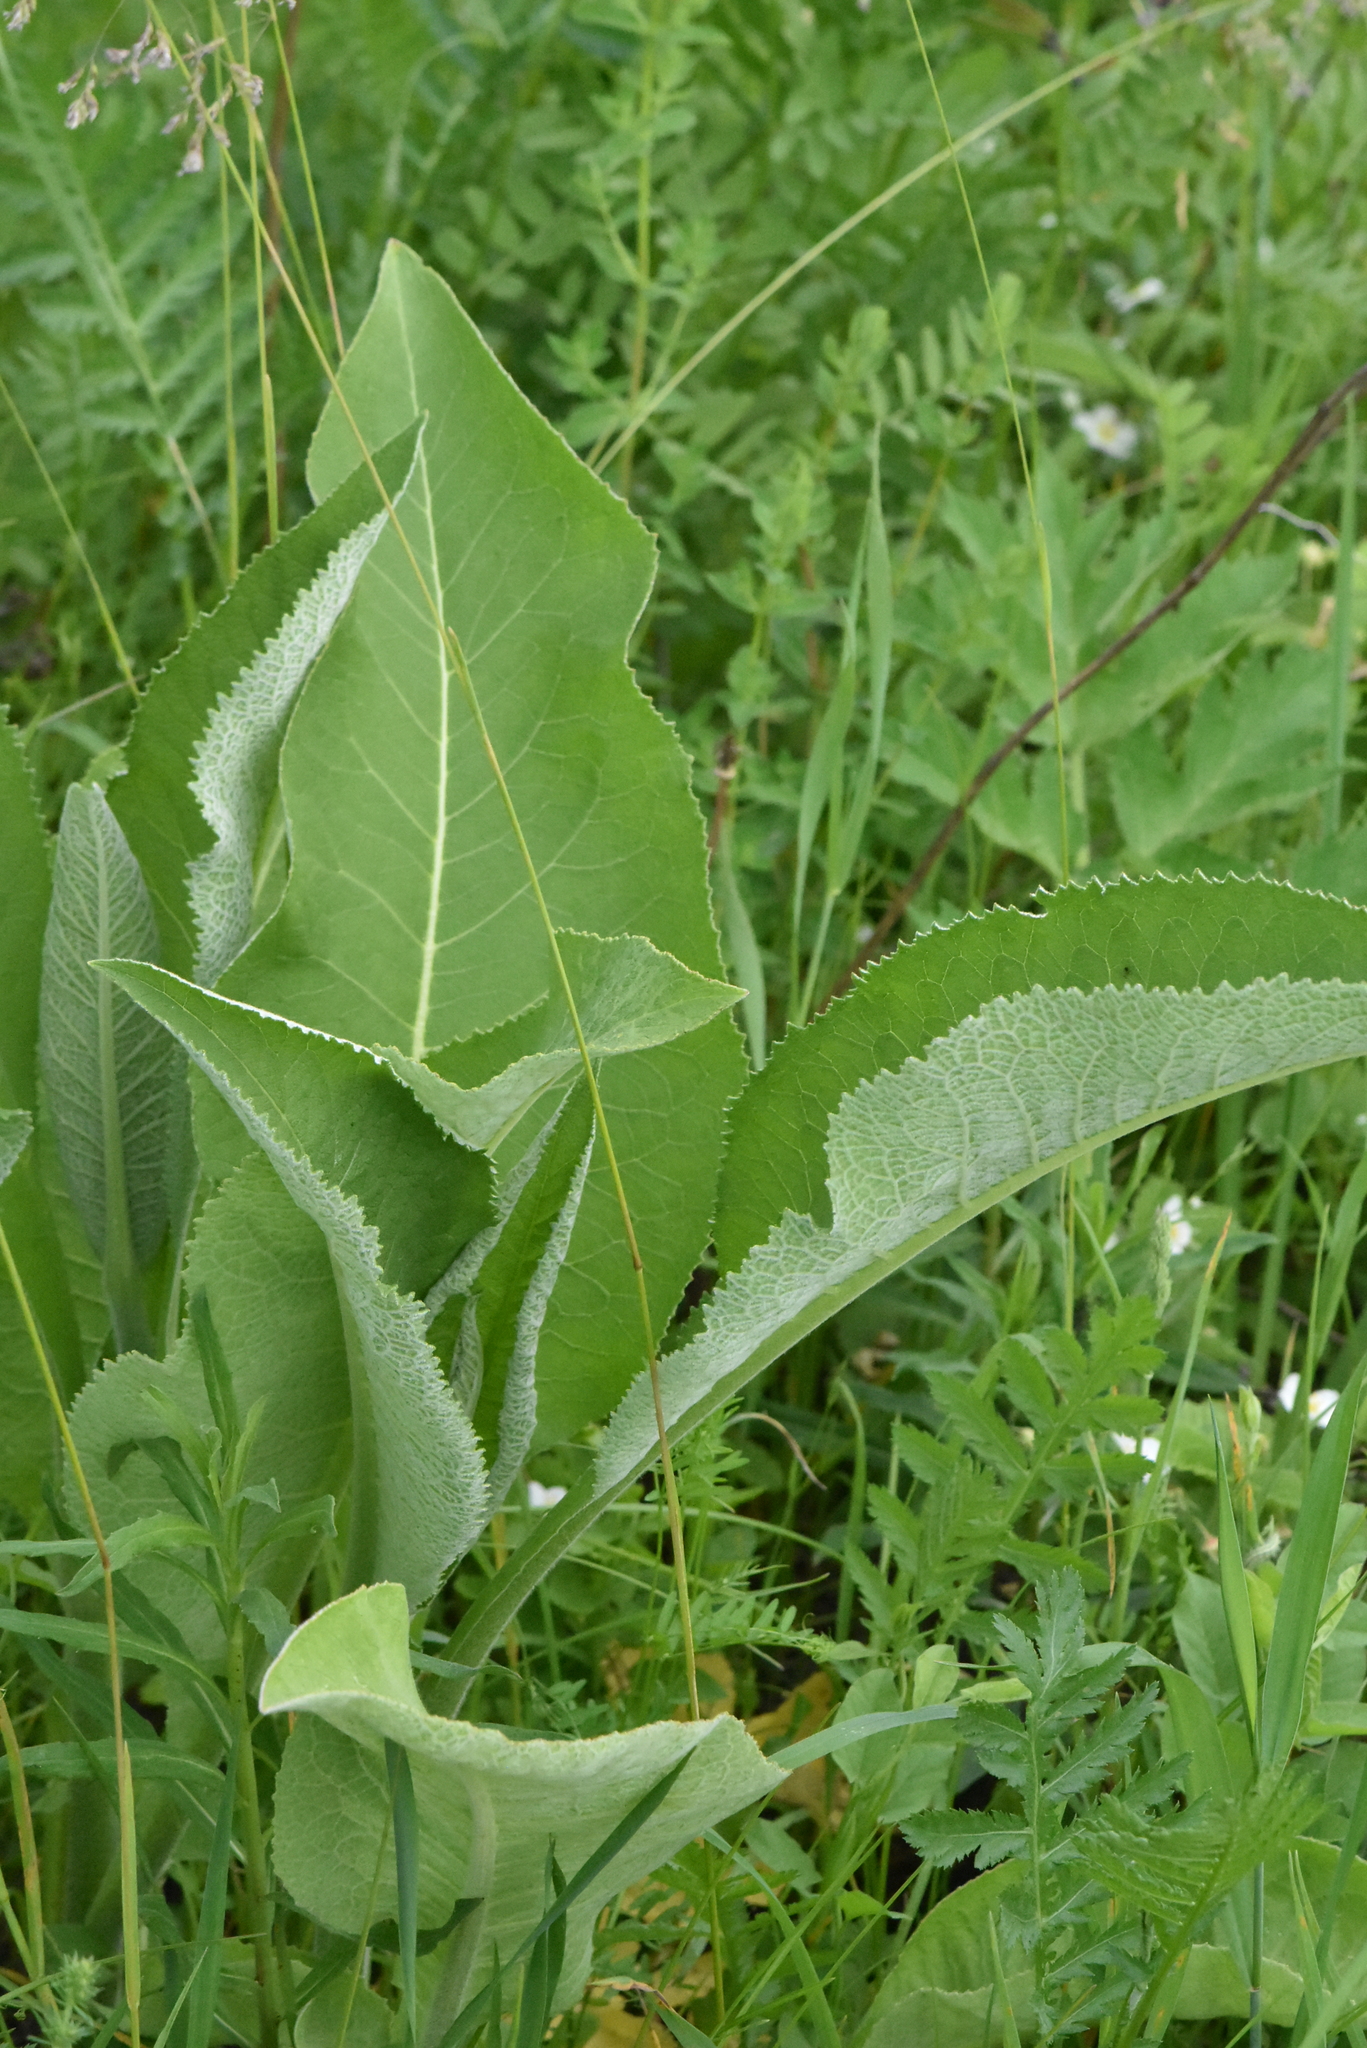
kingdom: Plantae
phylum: Tracheophyta
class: Magnoliopsida
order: Asterales
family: Asteraceae
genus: Inula
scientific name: Inula helenium
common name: Elecampane
